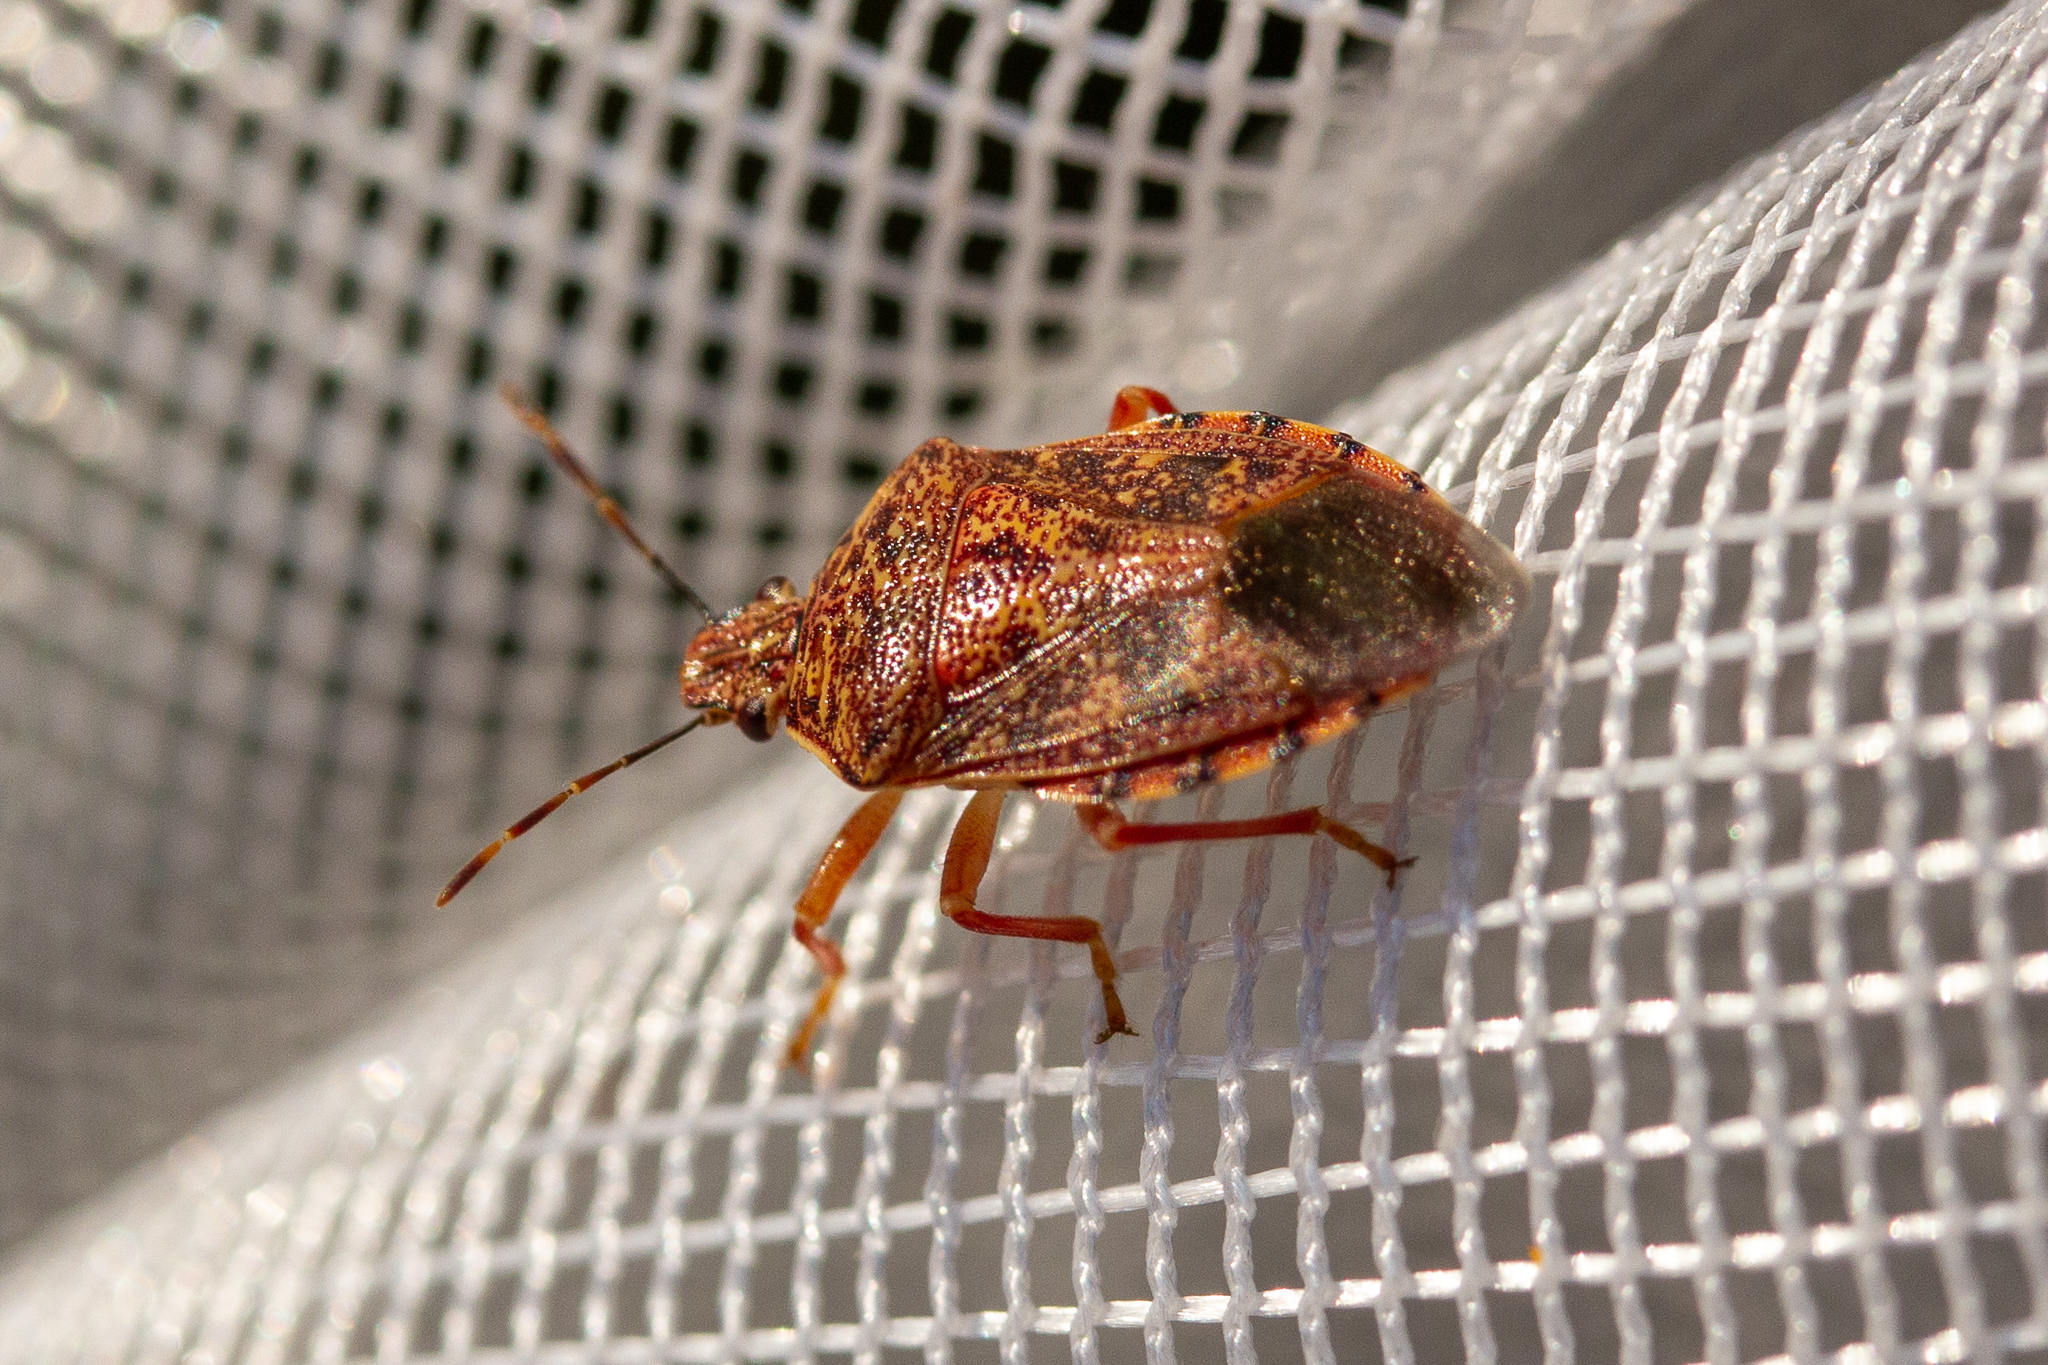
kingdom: Animalia
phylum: Arthropoda
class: Insecta
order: Hemiptera
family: Pentatomidae
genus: Podisus
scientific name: Podisus placidus
